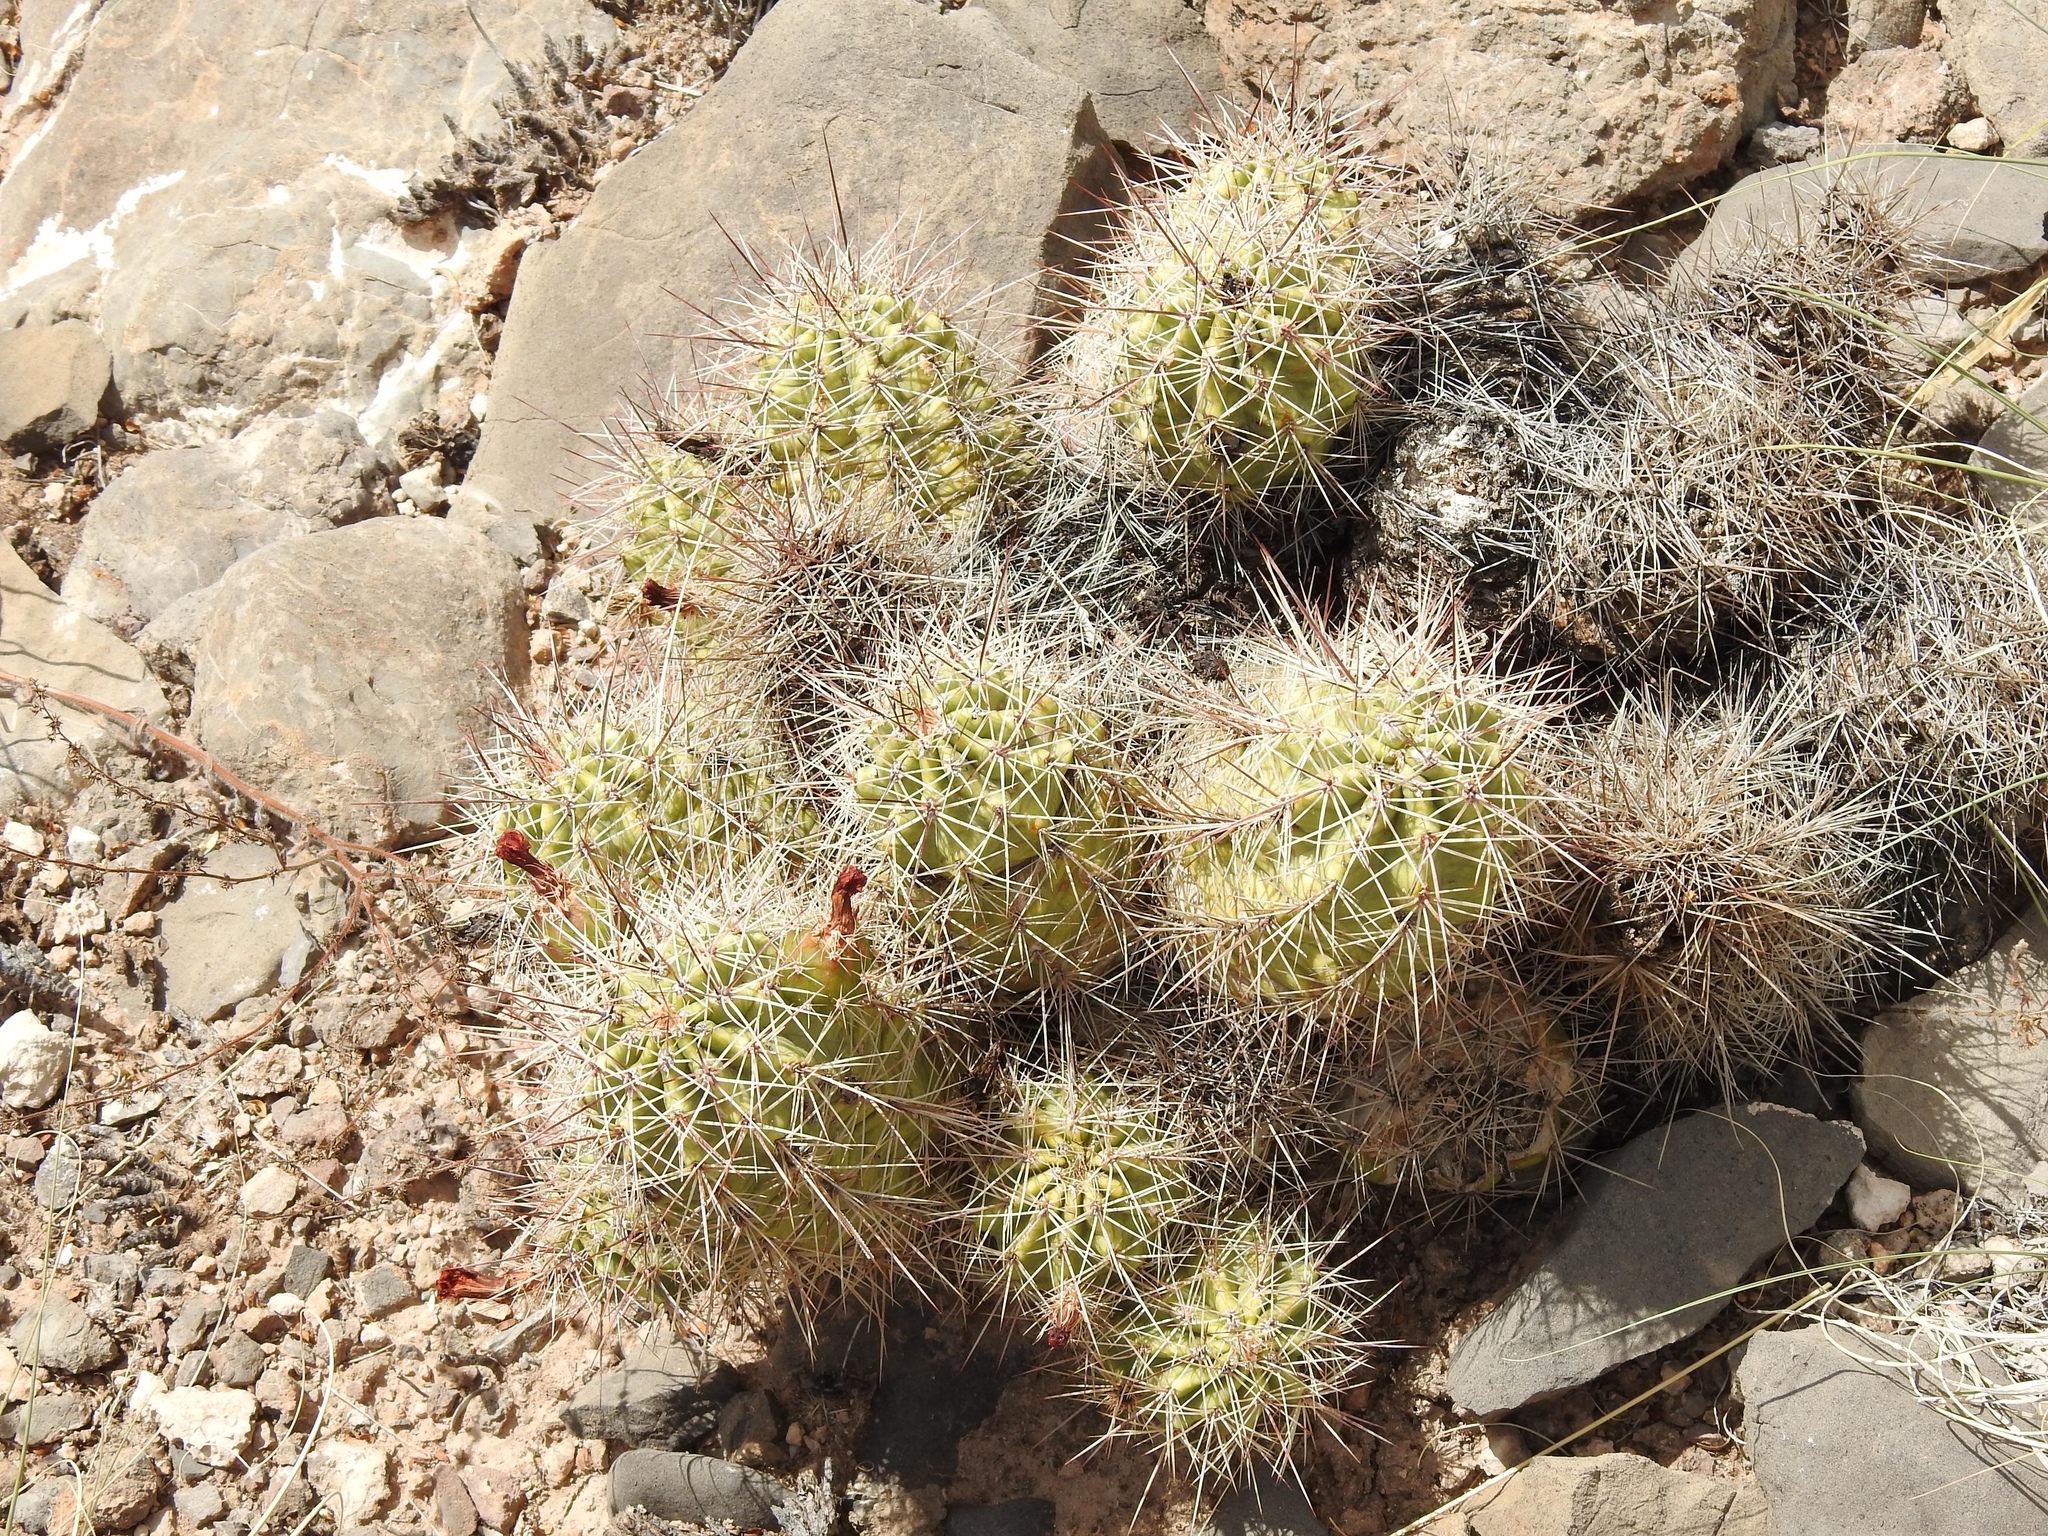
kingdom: Plantae
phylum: Tracheophyta
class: Magnoliopsida
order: Caryophyllales
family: Cactaceae
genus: Echinocereus
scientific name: Echinocereus coccineus
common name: Scarlet hedgehog cactus
